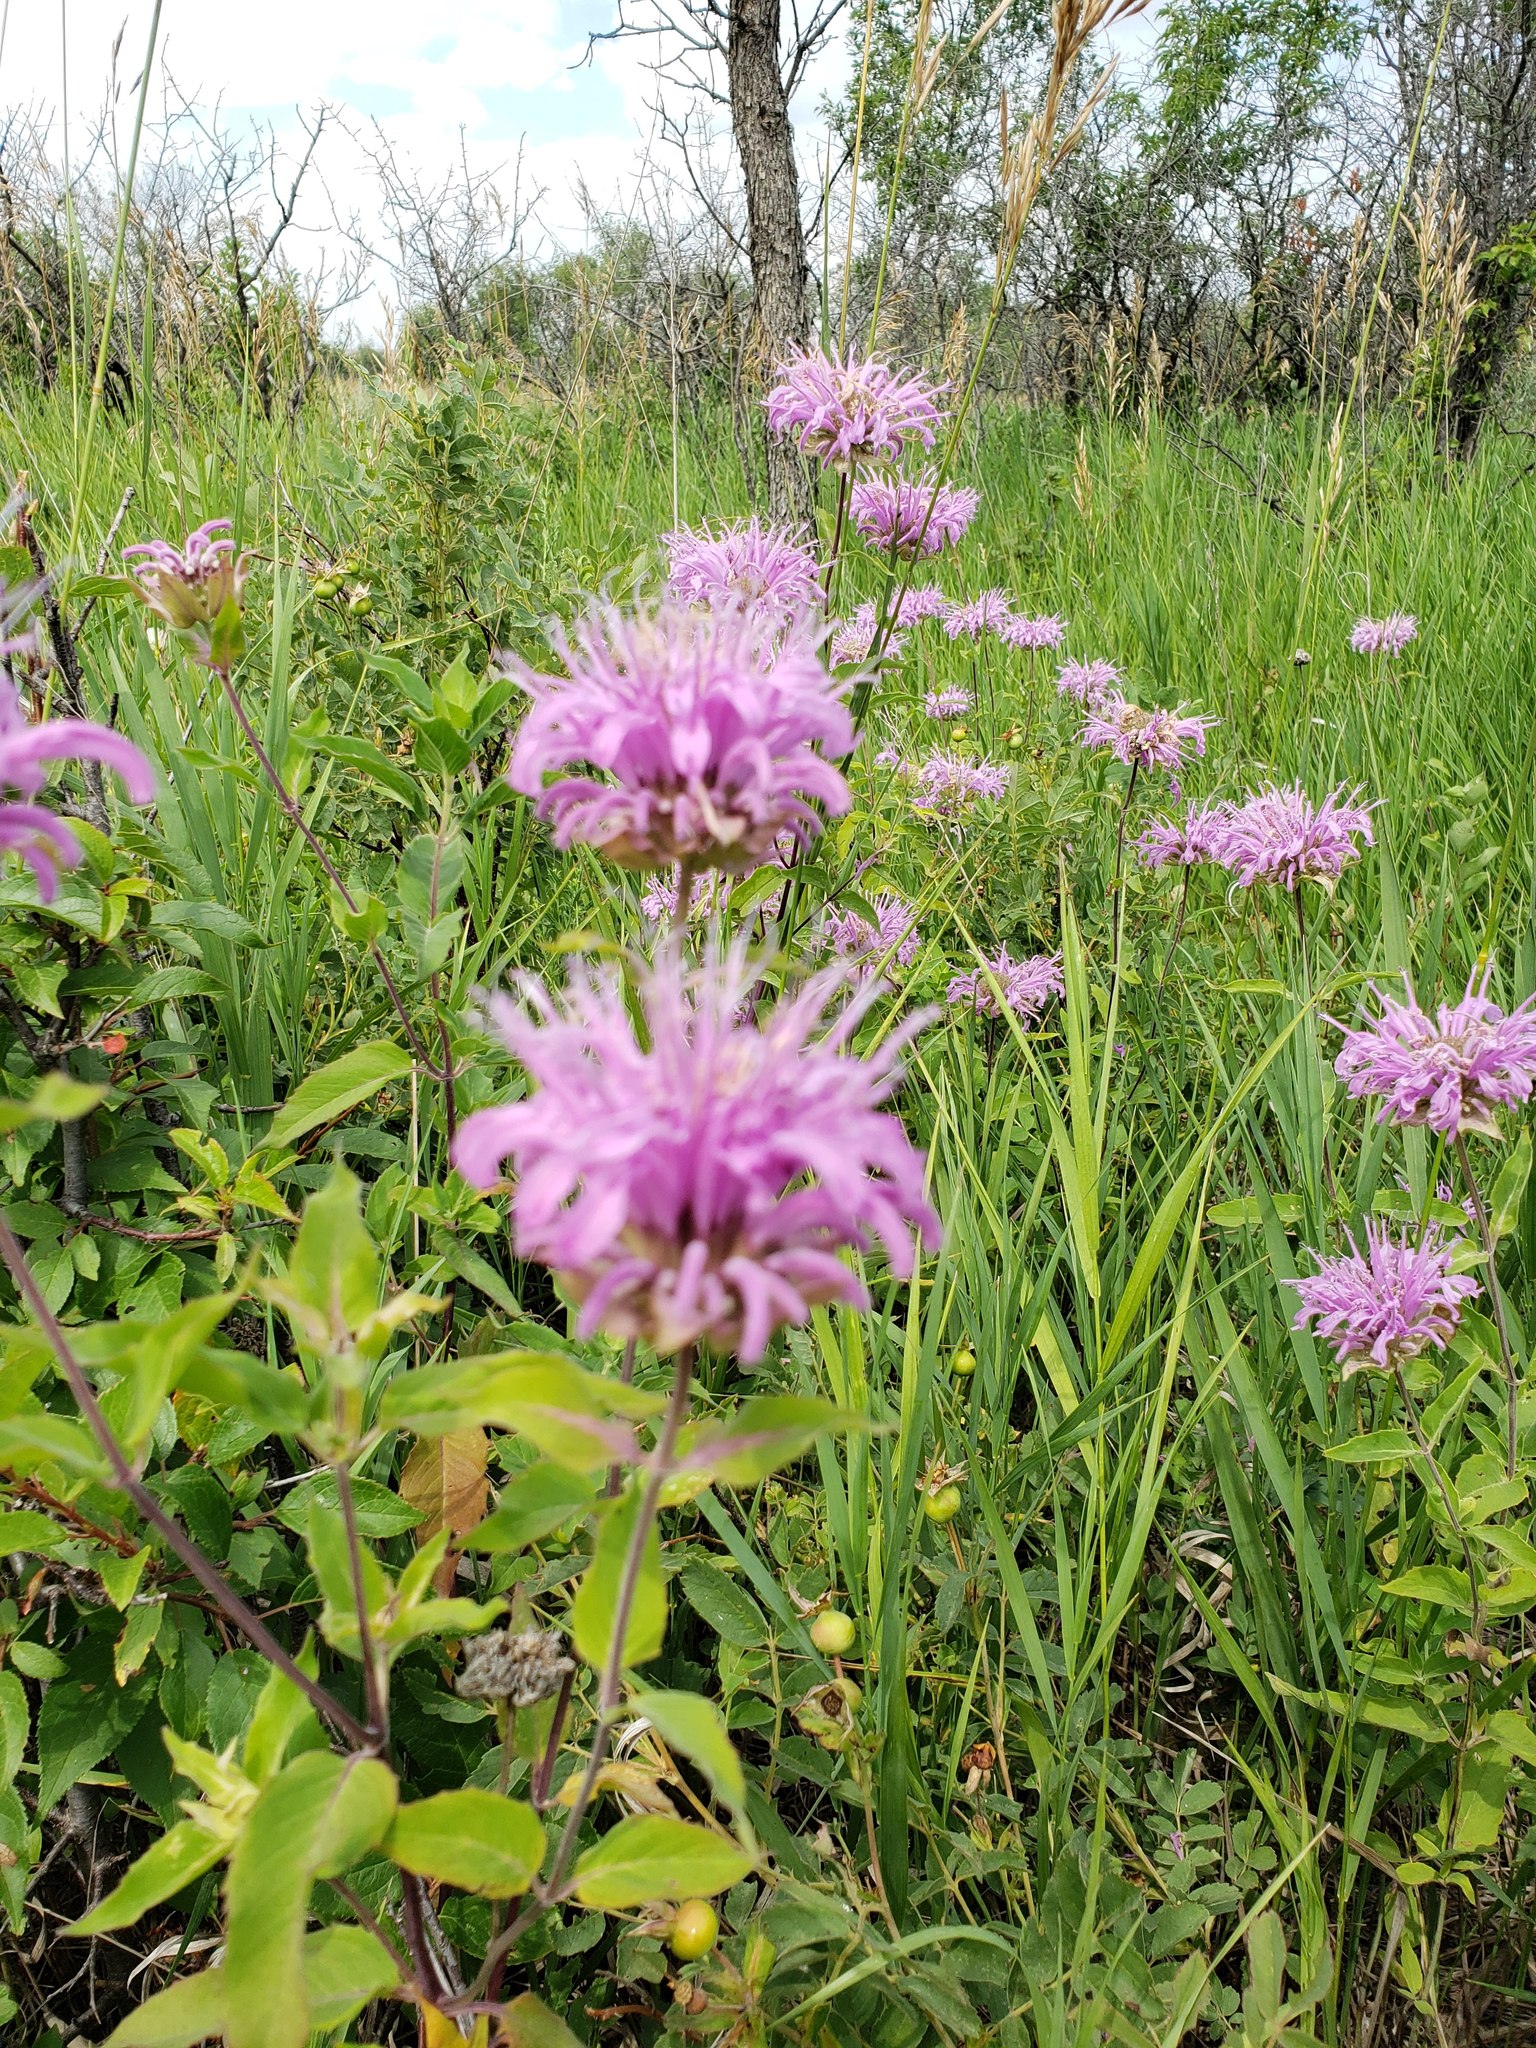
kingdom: Plantae
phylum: Tracheophyta
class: Magnoliopsida
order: Lamiales
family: Lamiaceae
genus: Monarda
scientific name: Monarda fistulosa
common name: Purple beebalm
